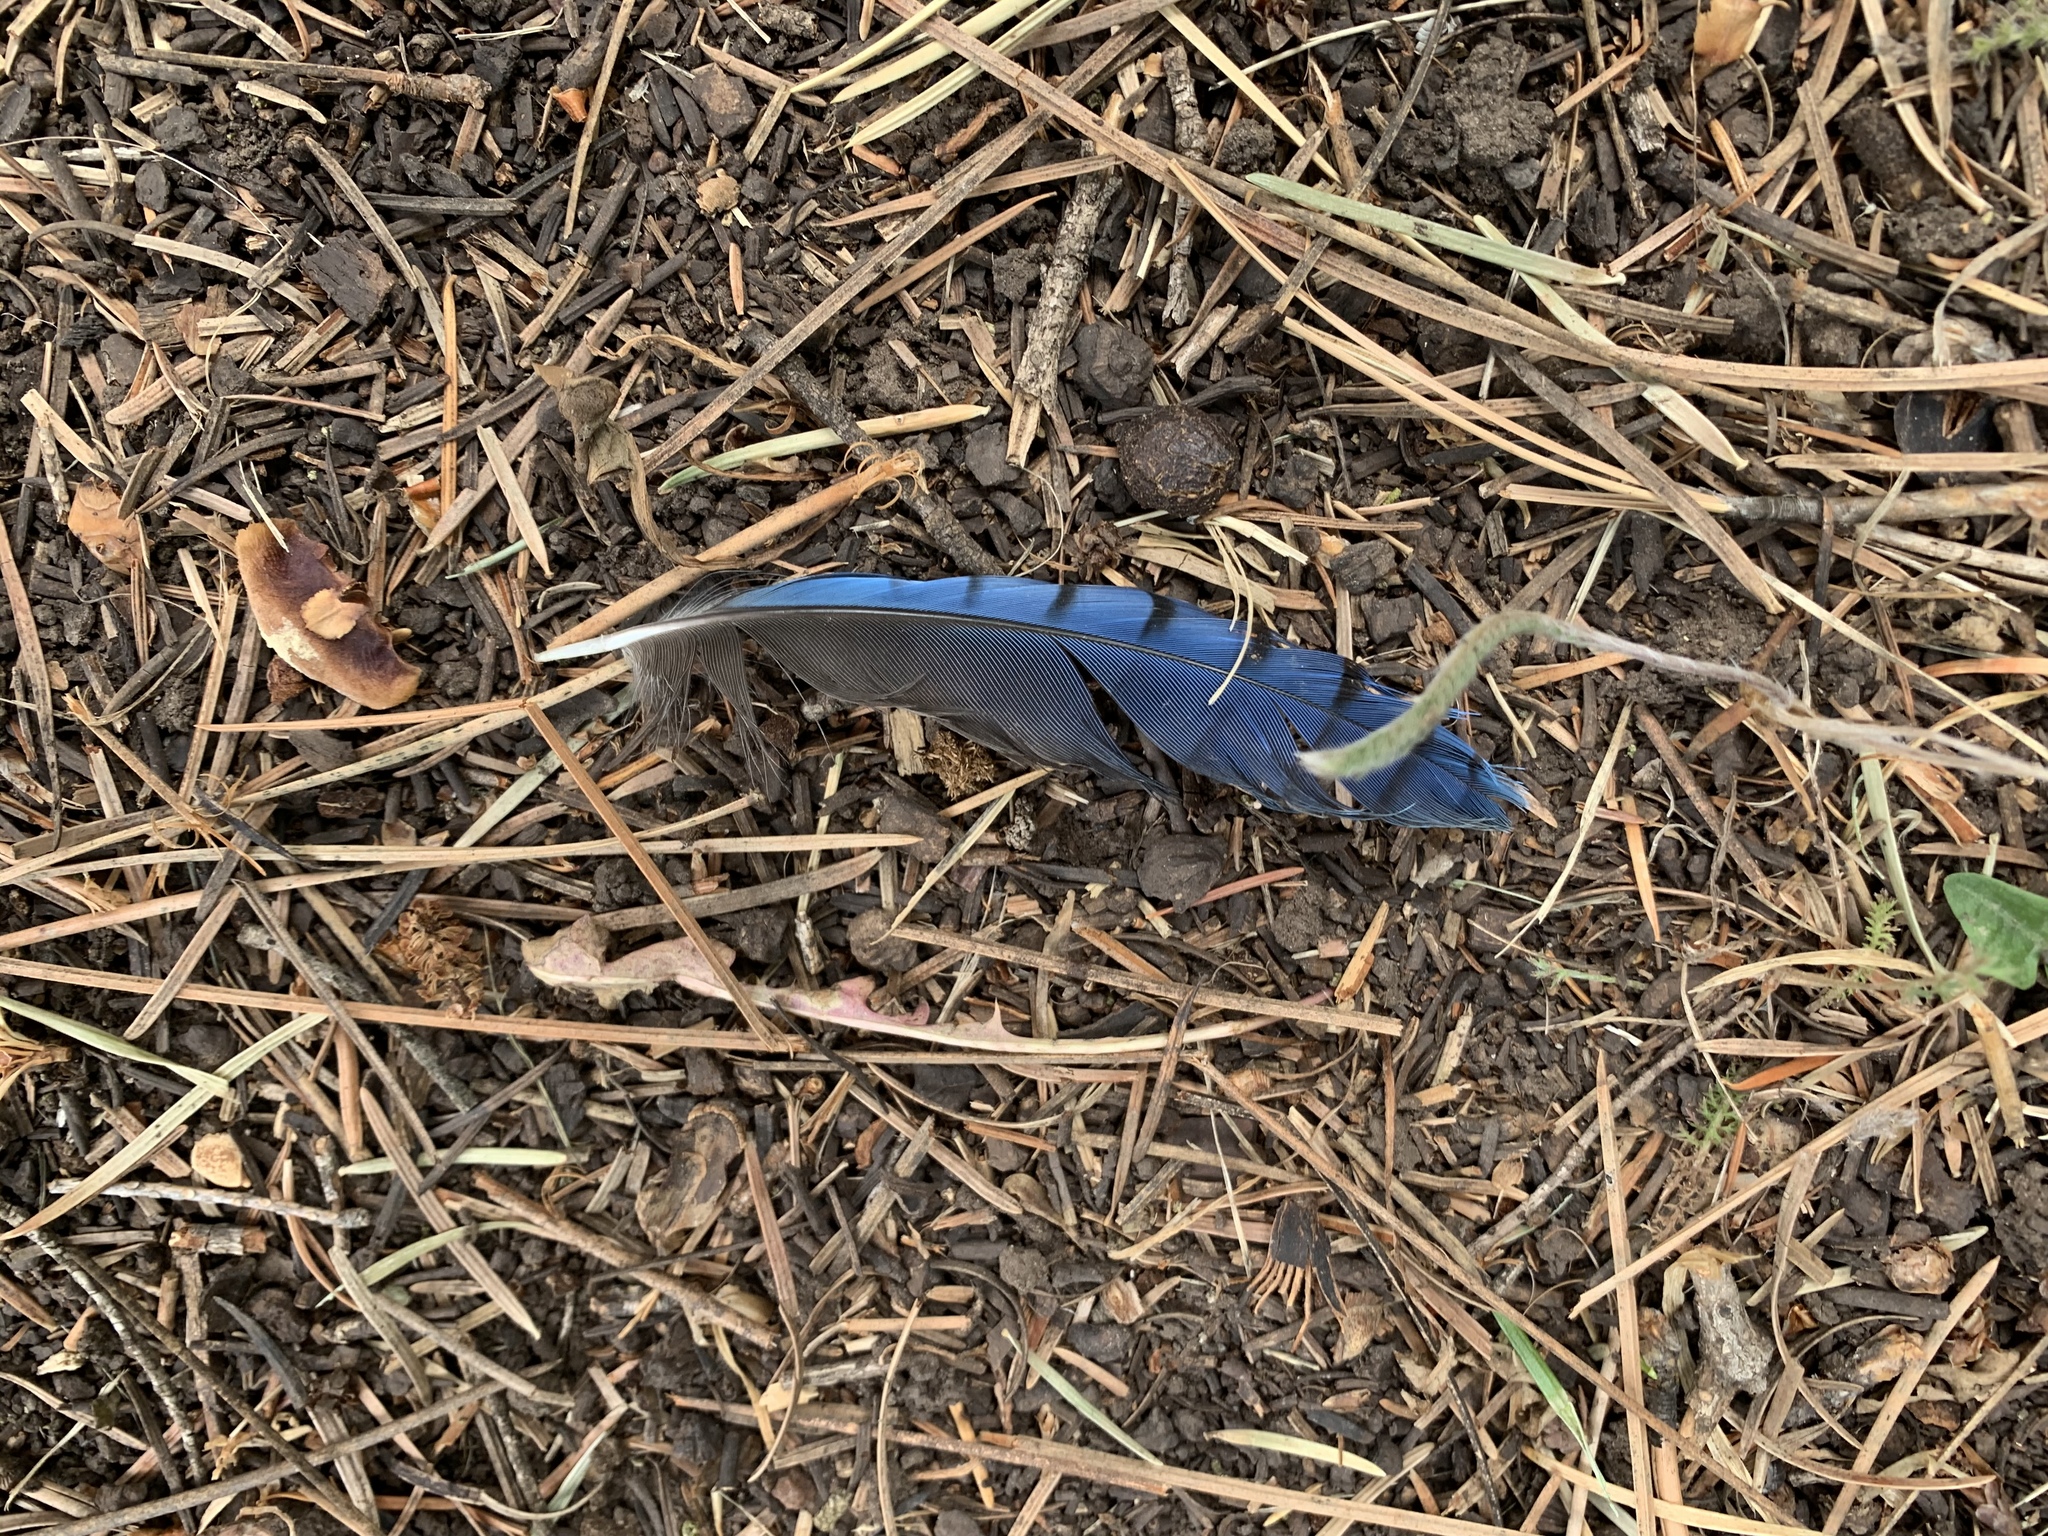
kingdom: Animalia
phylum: Chordata
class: Aves
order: Passeriformes
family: Corvidae
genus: Cyanocitta
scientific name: Cyanocitta stelleri
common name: Steller's jay
